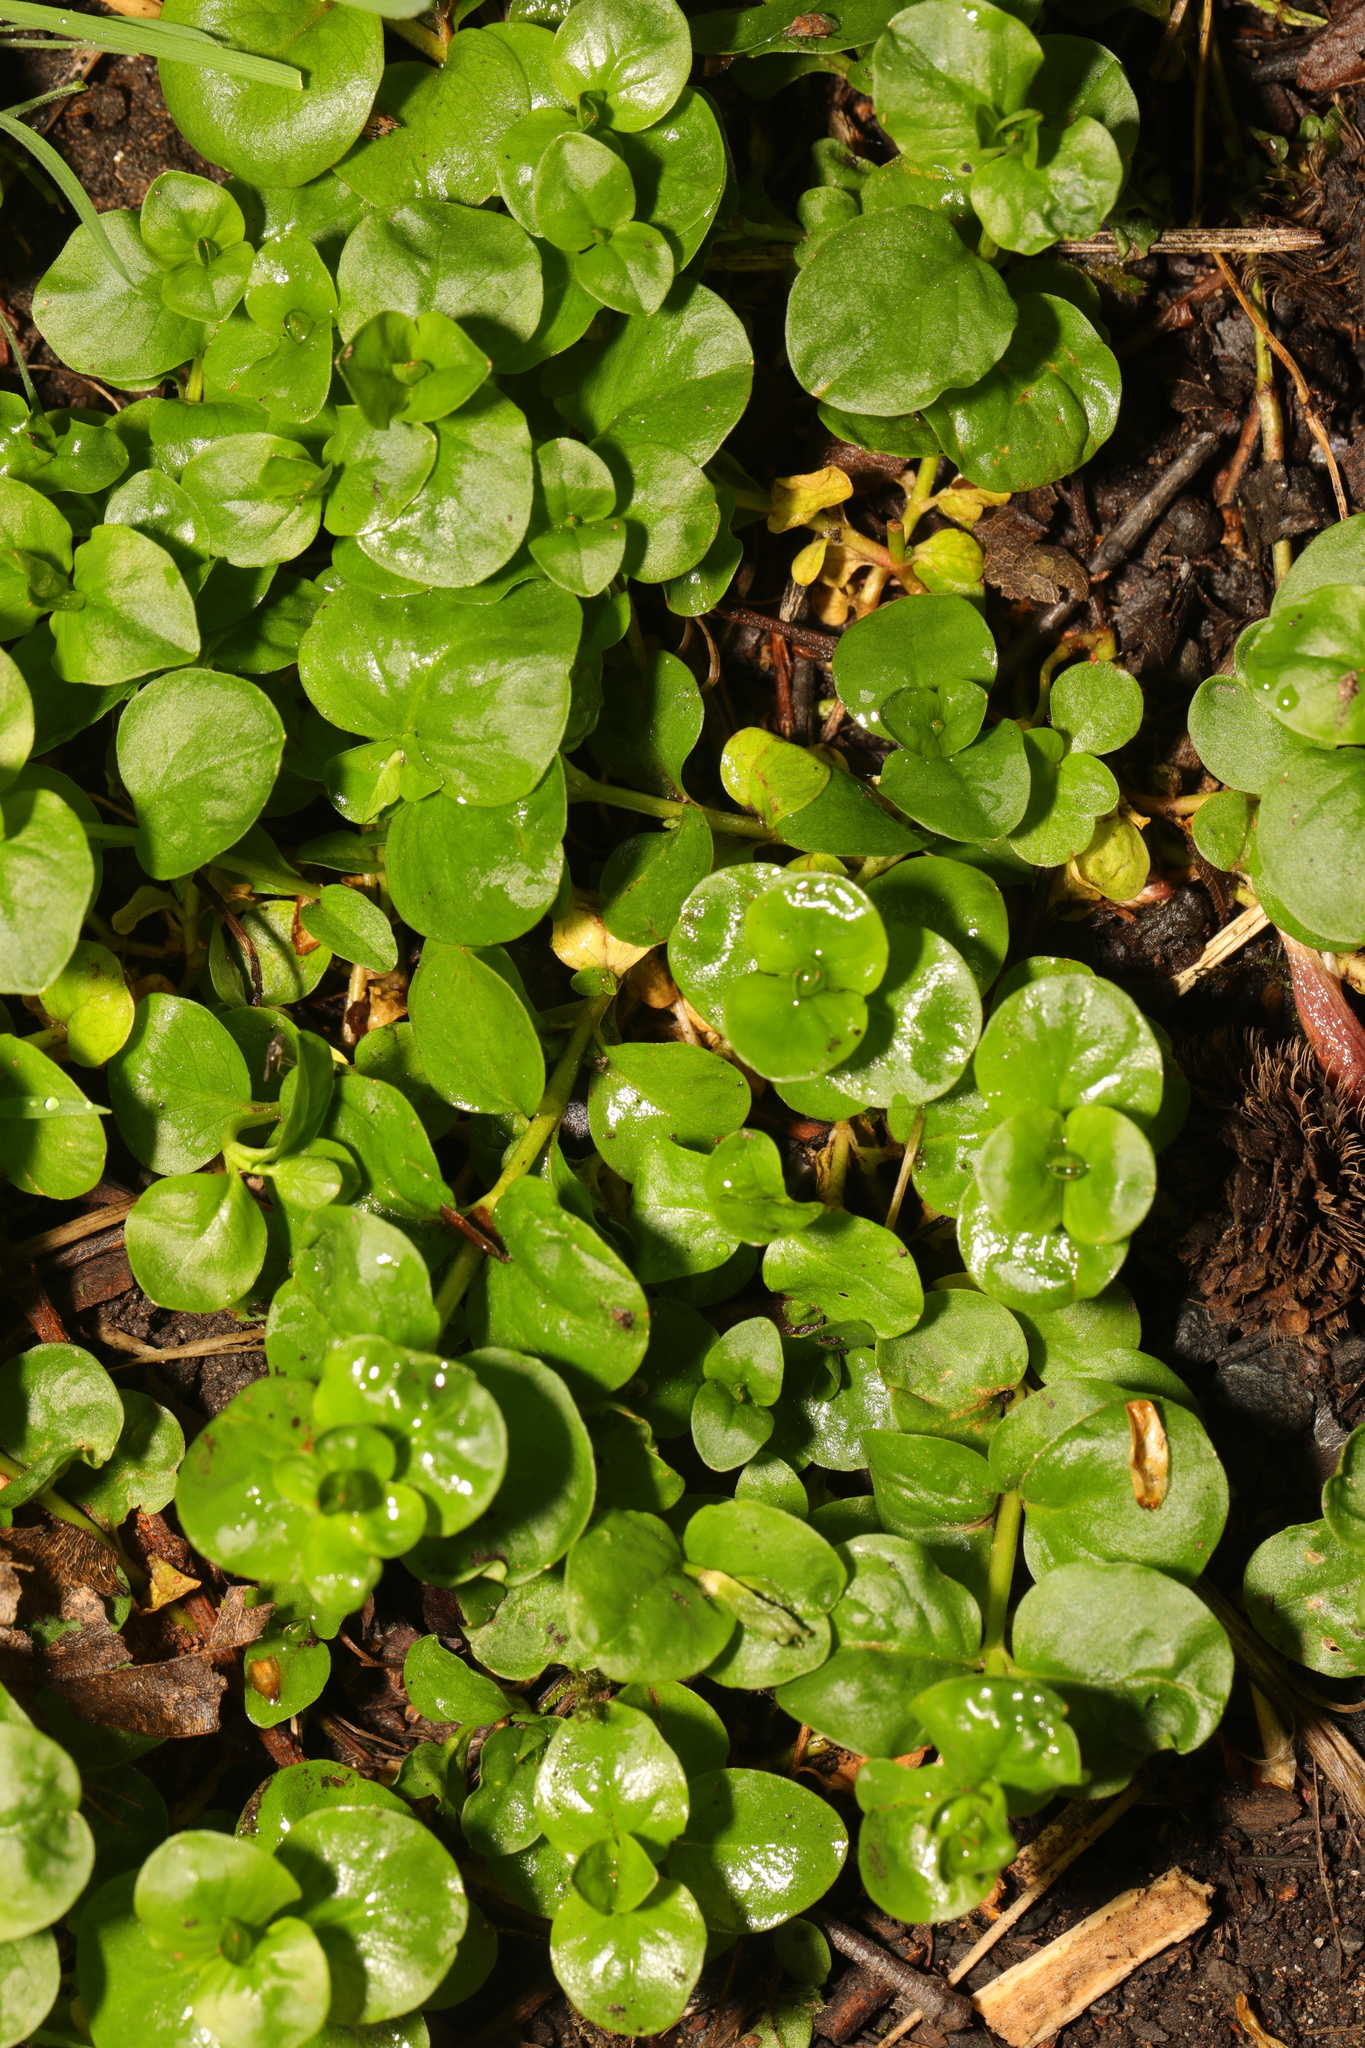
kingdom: Plantae
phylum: Tracheophyta
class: Magnoliopsida
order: Ericales
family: Primulaceae
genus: Lysimachia
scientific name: Lysimachia nummularia
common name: Moneywort
